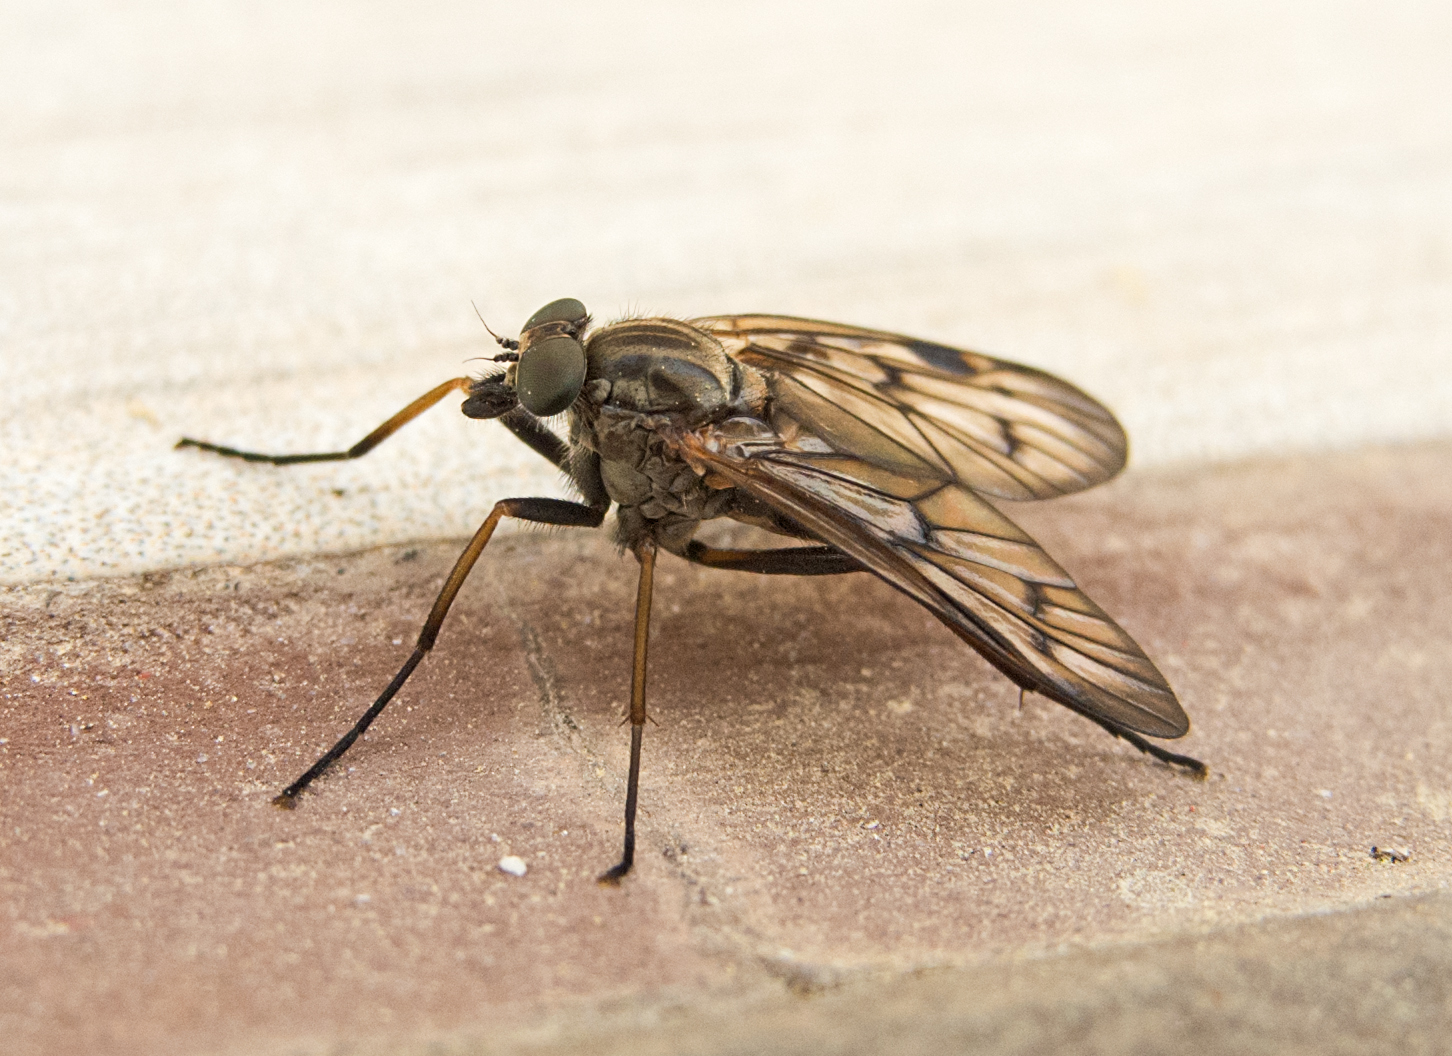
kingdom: Animalia
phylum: Arthropoda
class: Insecta
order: Diptera
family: Rhagionidae
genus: Rhagio
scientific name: Rhagio maculipennis
